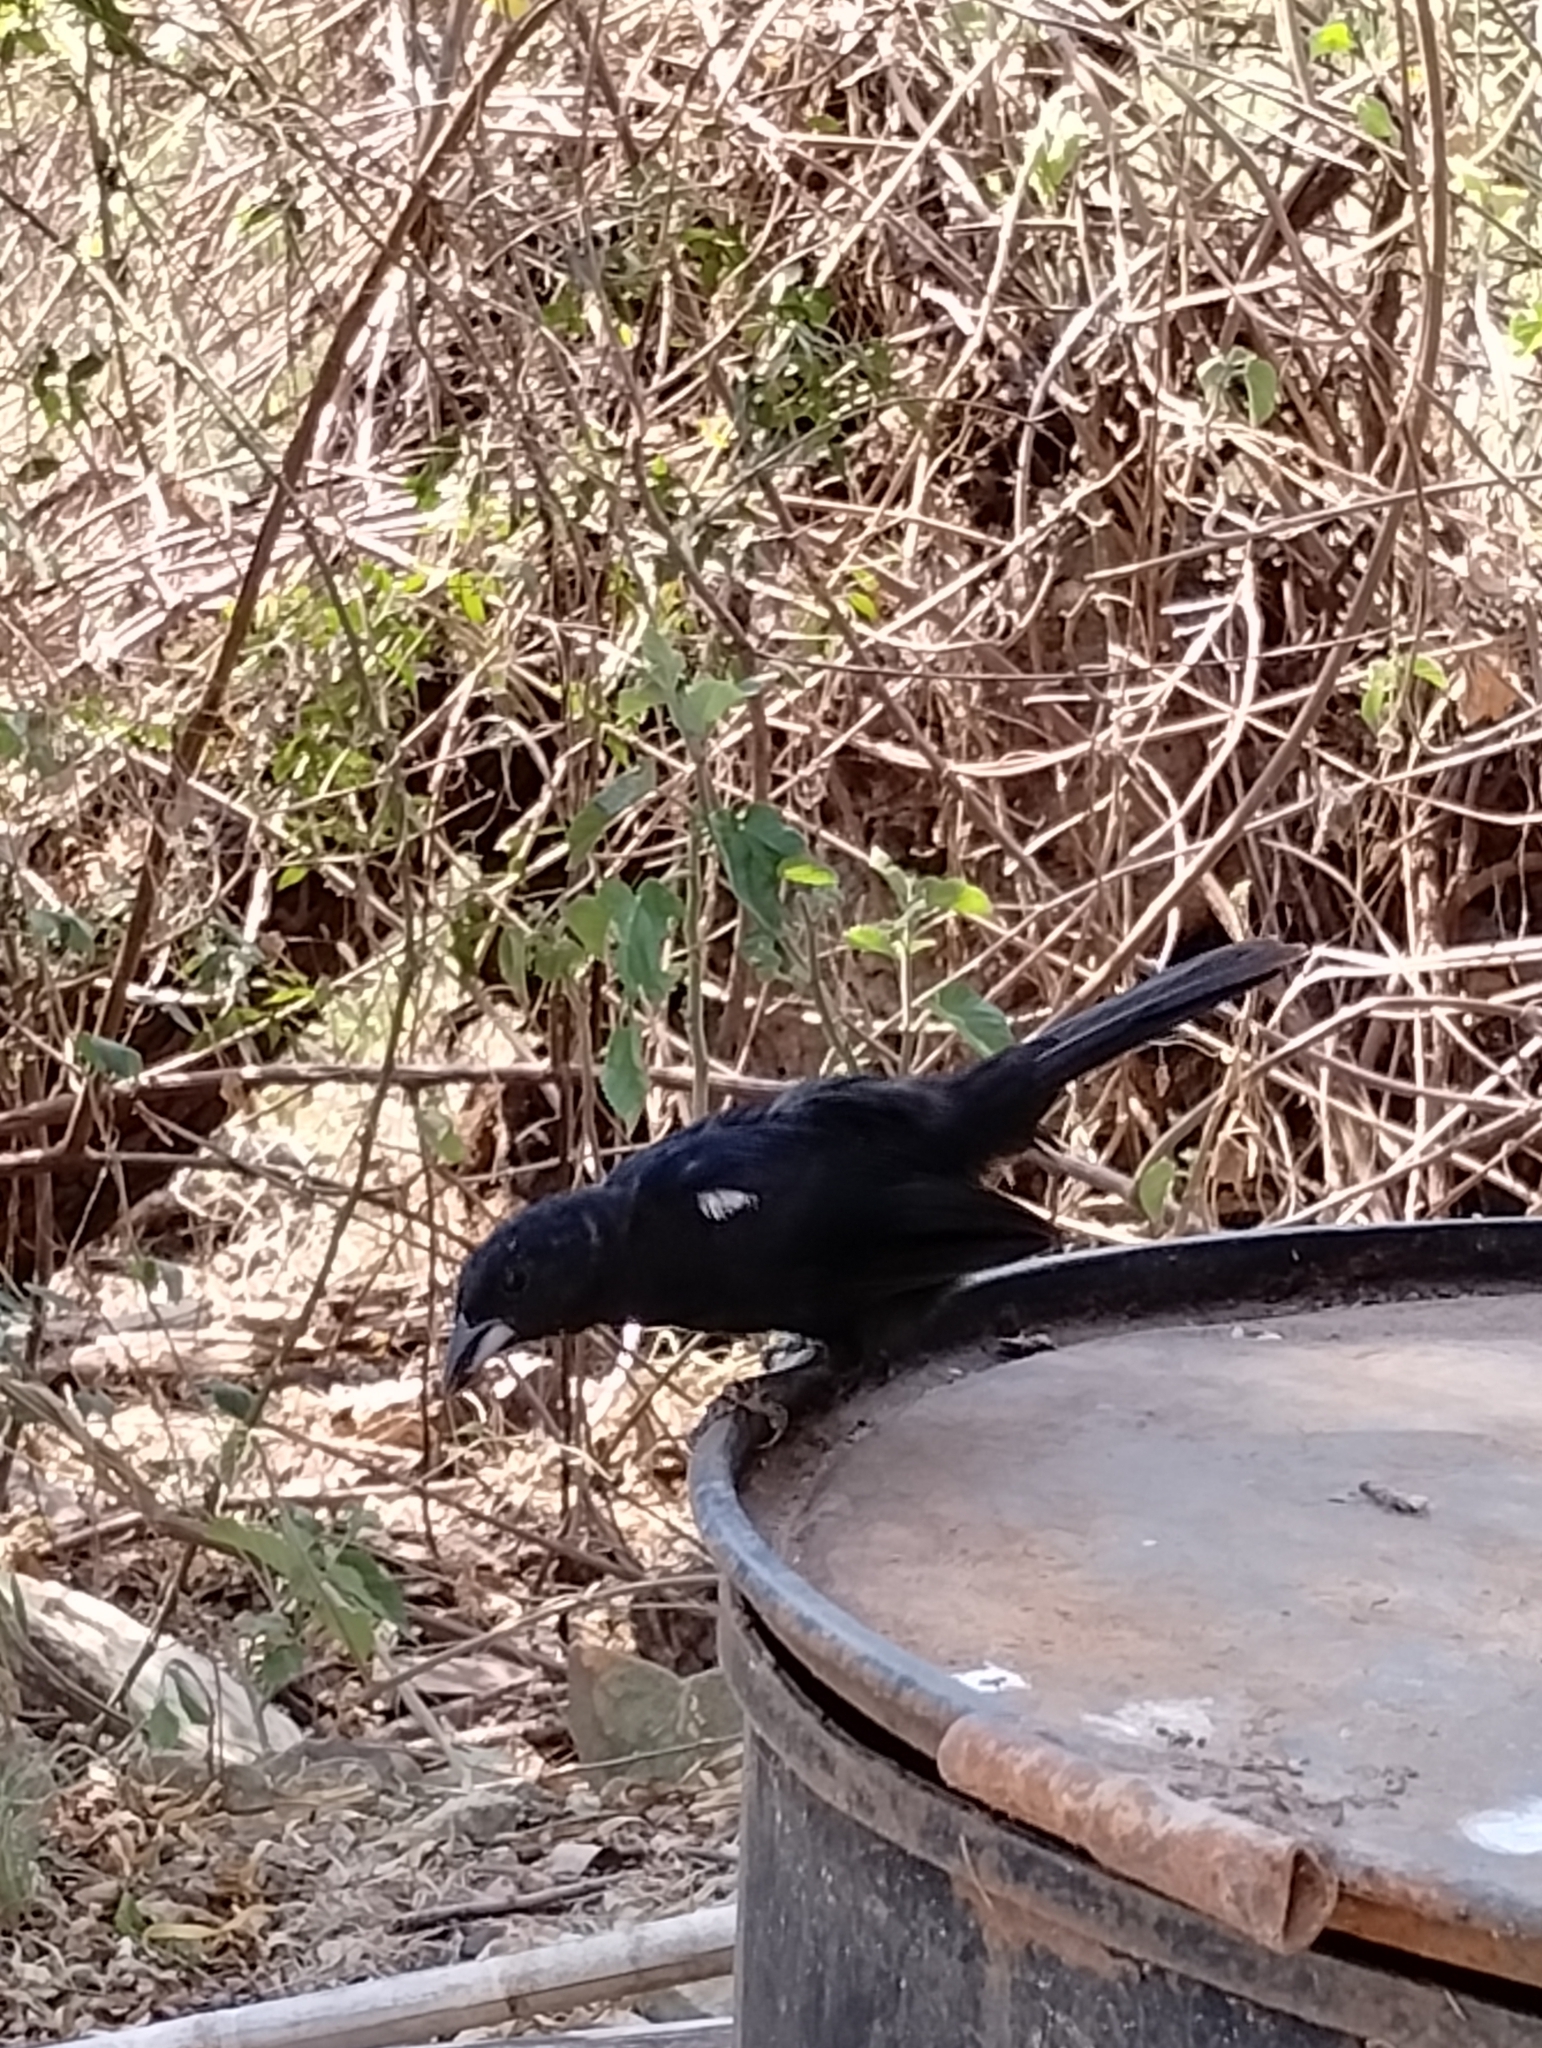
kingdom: Animalia
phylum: Chordata
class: Aves
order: Passeriformes
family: Thraupidae
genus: Tachyphonus
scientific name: Tachyphonus rufus
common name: White-lined tanager
